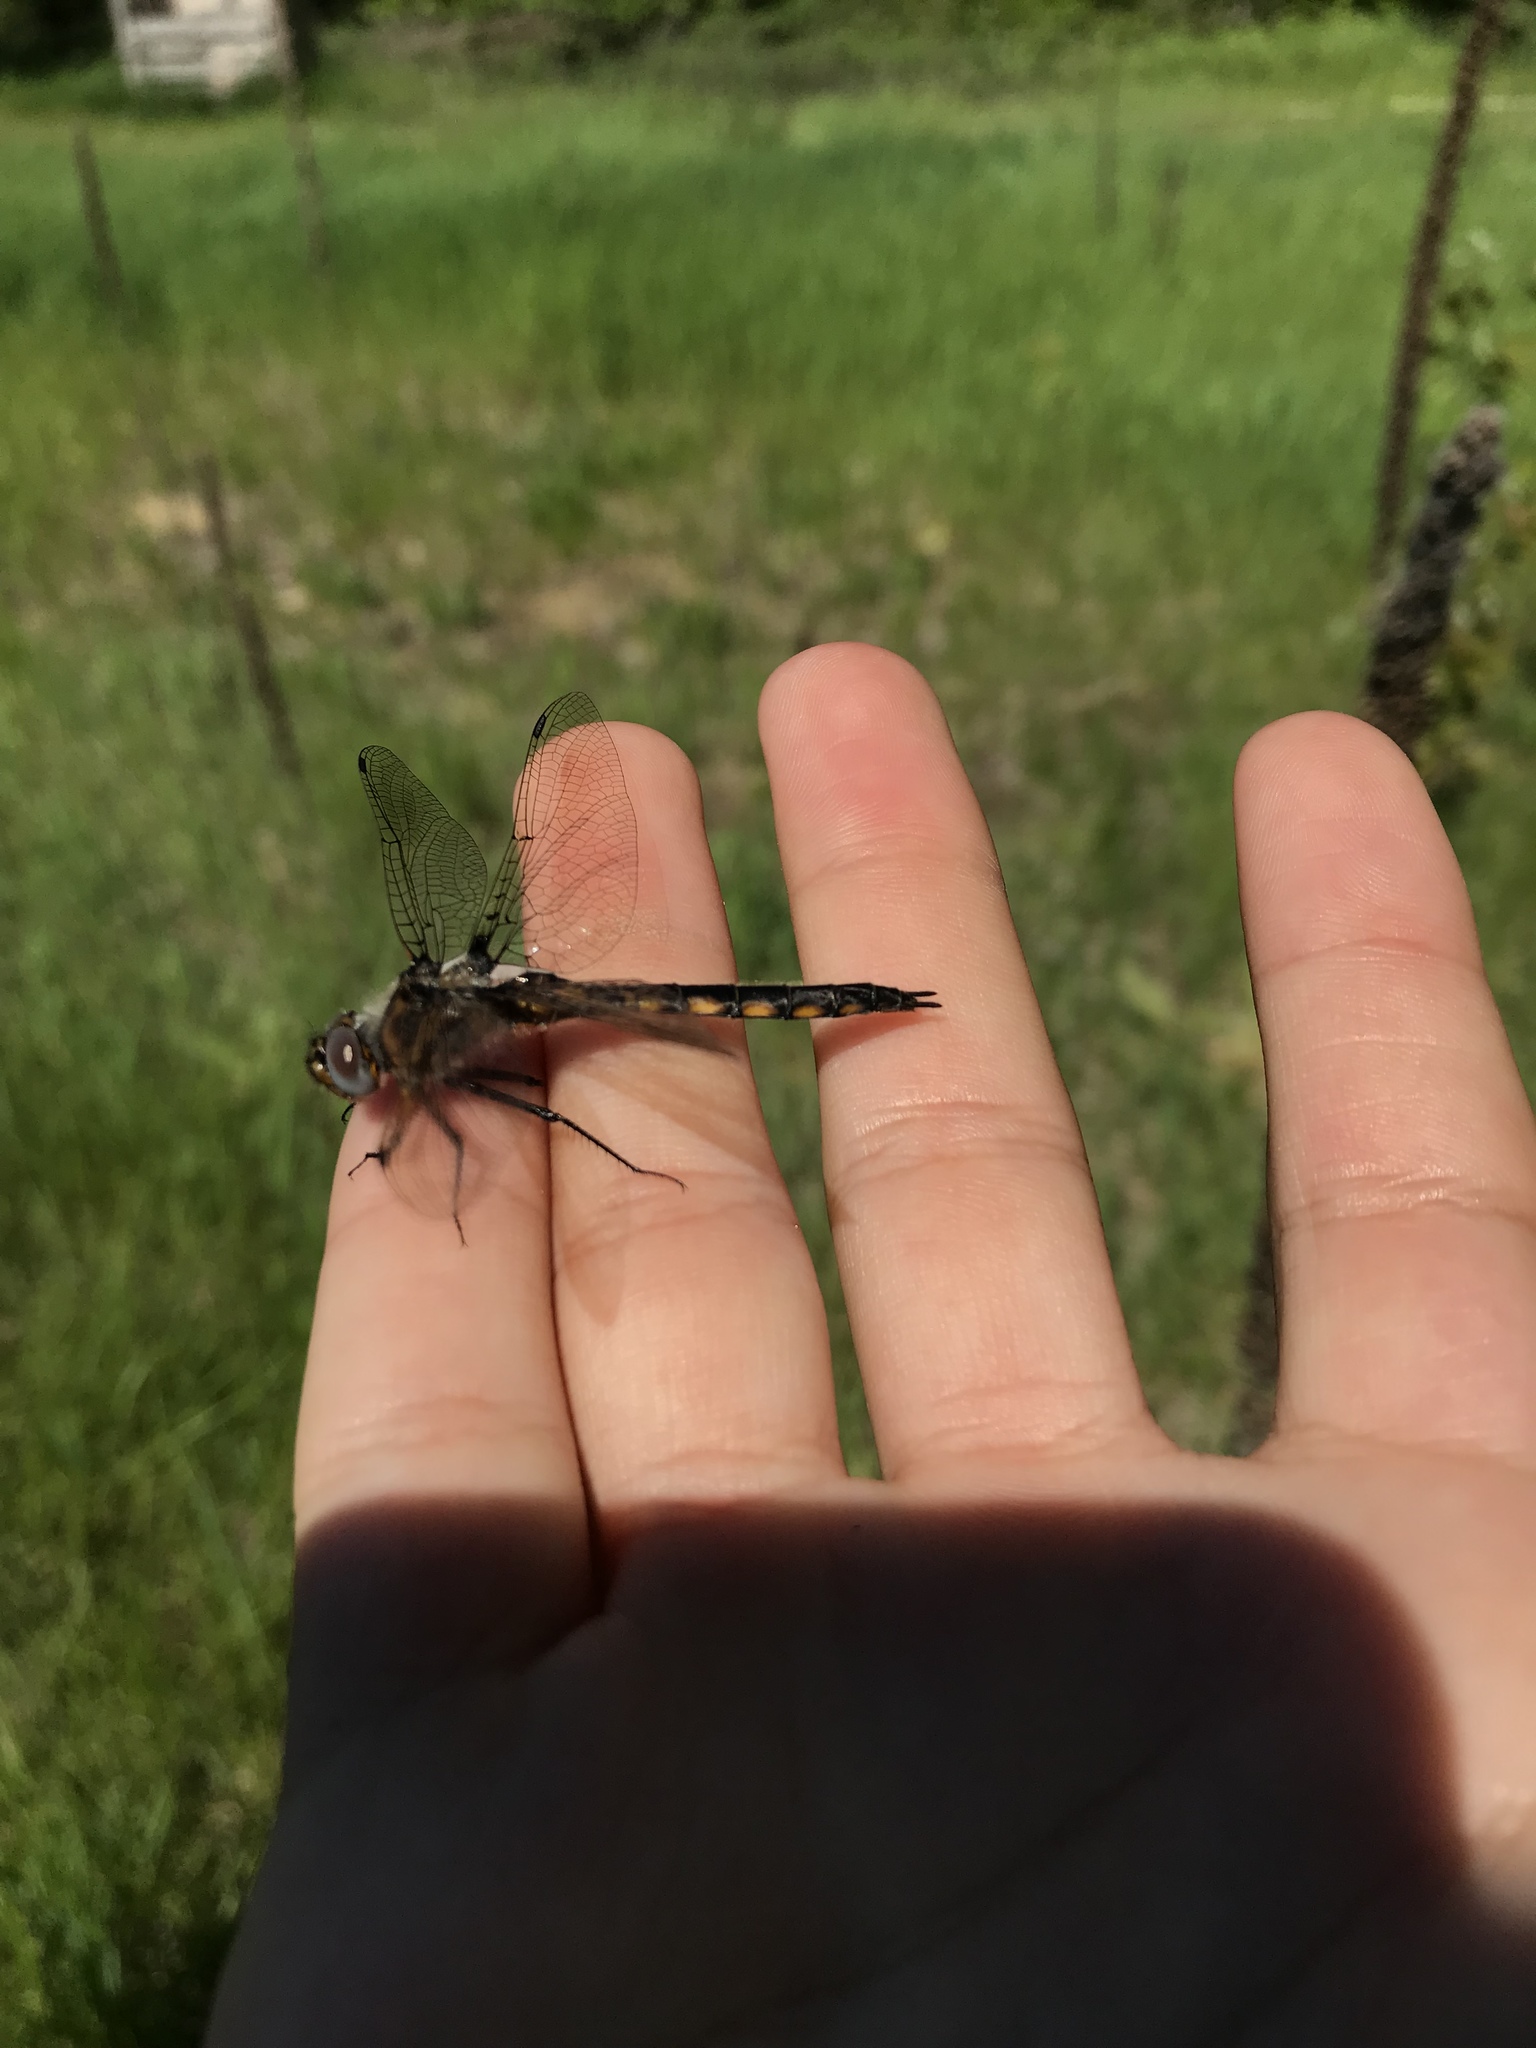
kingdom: Animalia
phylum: Arthropoda
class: Insecta
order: Odonata
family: Corduliidae
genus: Epitheca
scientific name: Epitheca canis
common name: Beaverpond baskettail
